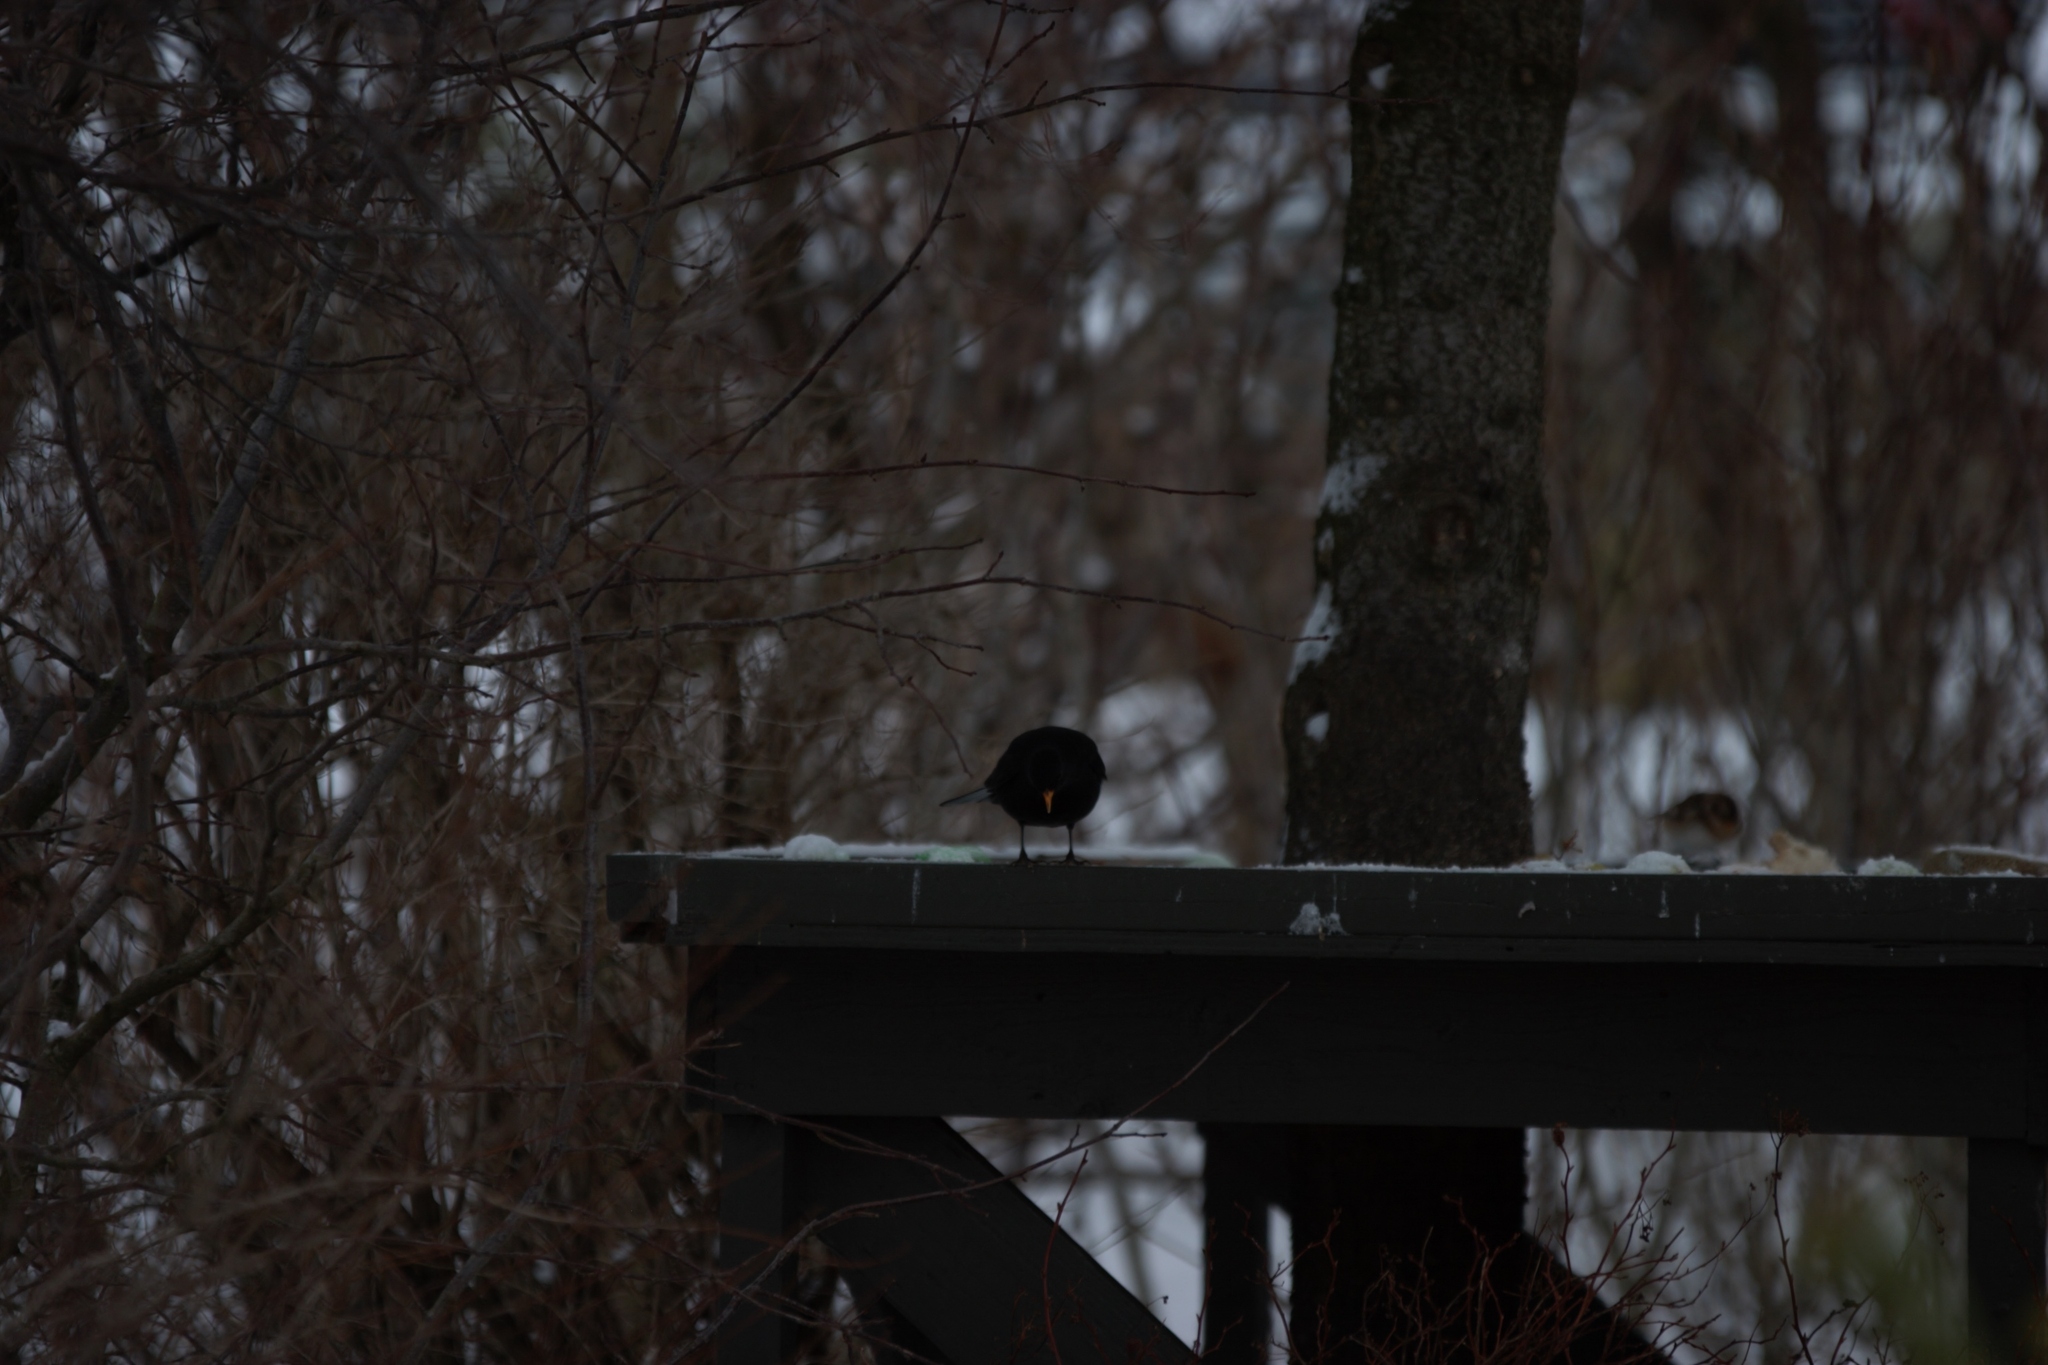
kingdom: Animalia
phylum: Chordata
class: Aves
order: Passeriformes
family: Turdidae
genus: Turdus
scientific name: Turdus merula
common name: Common blackbird
